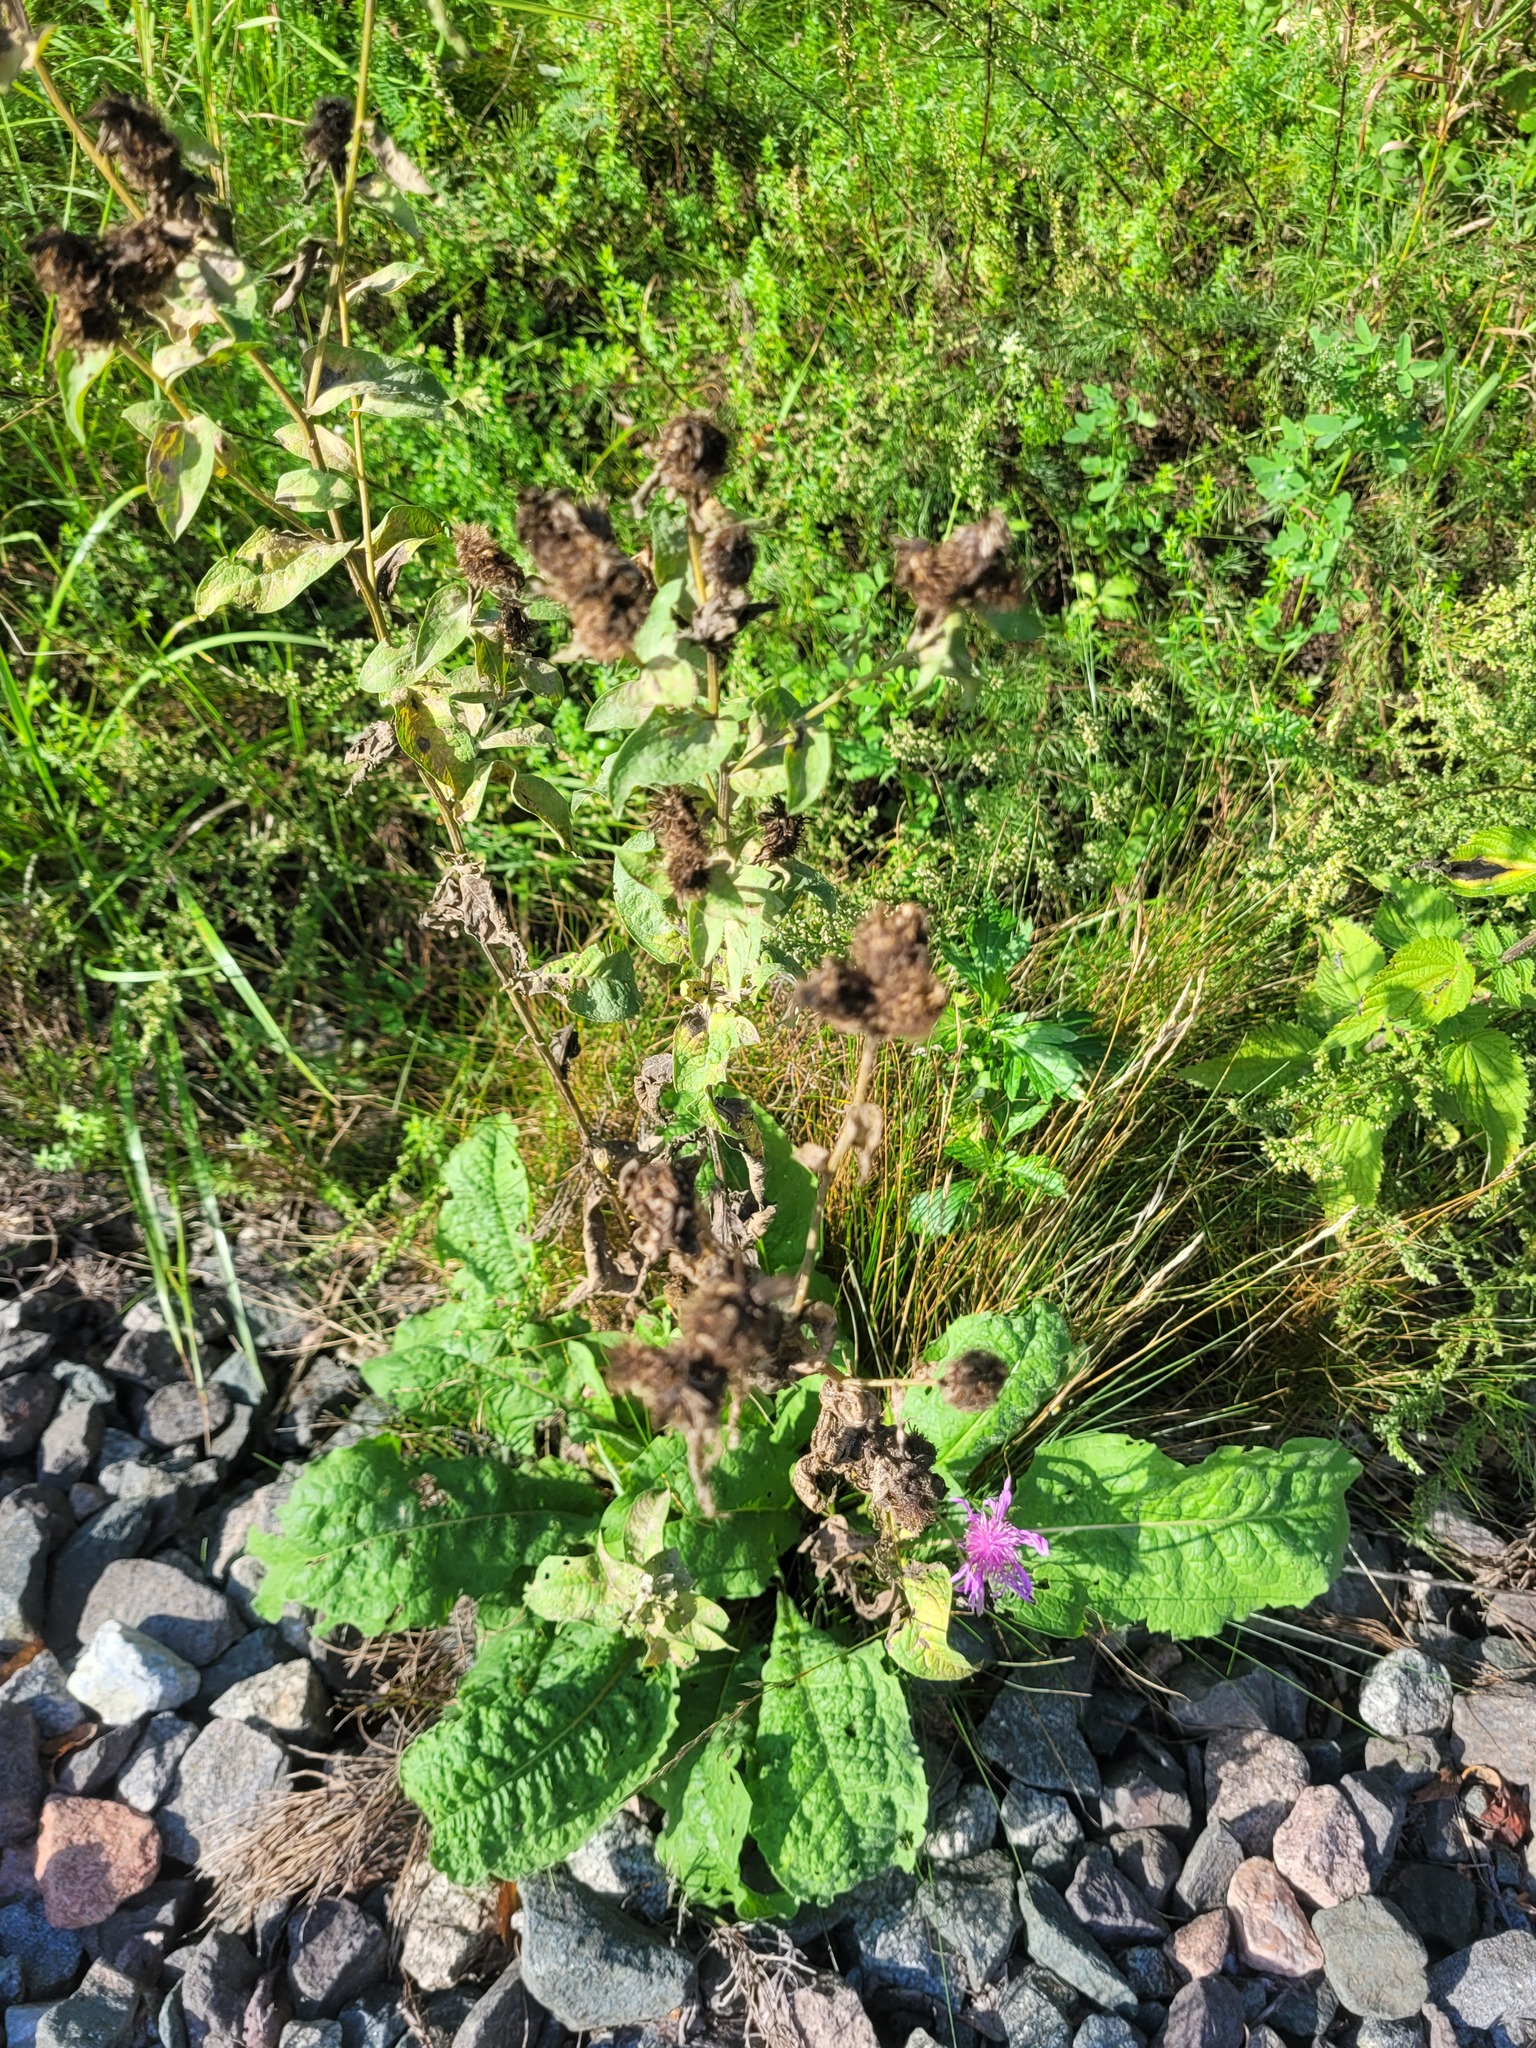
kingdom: Plantae
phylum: Tracheophyta
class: Magnoliopsida
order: Asterales
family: Asteraceae
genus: Centaurea
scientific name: Centaurea pseudophrygia
